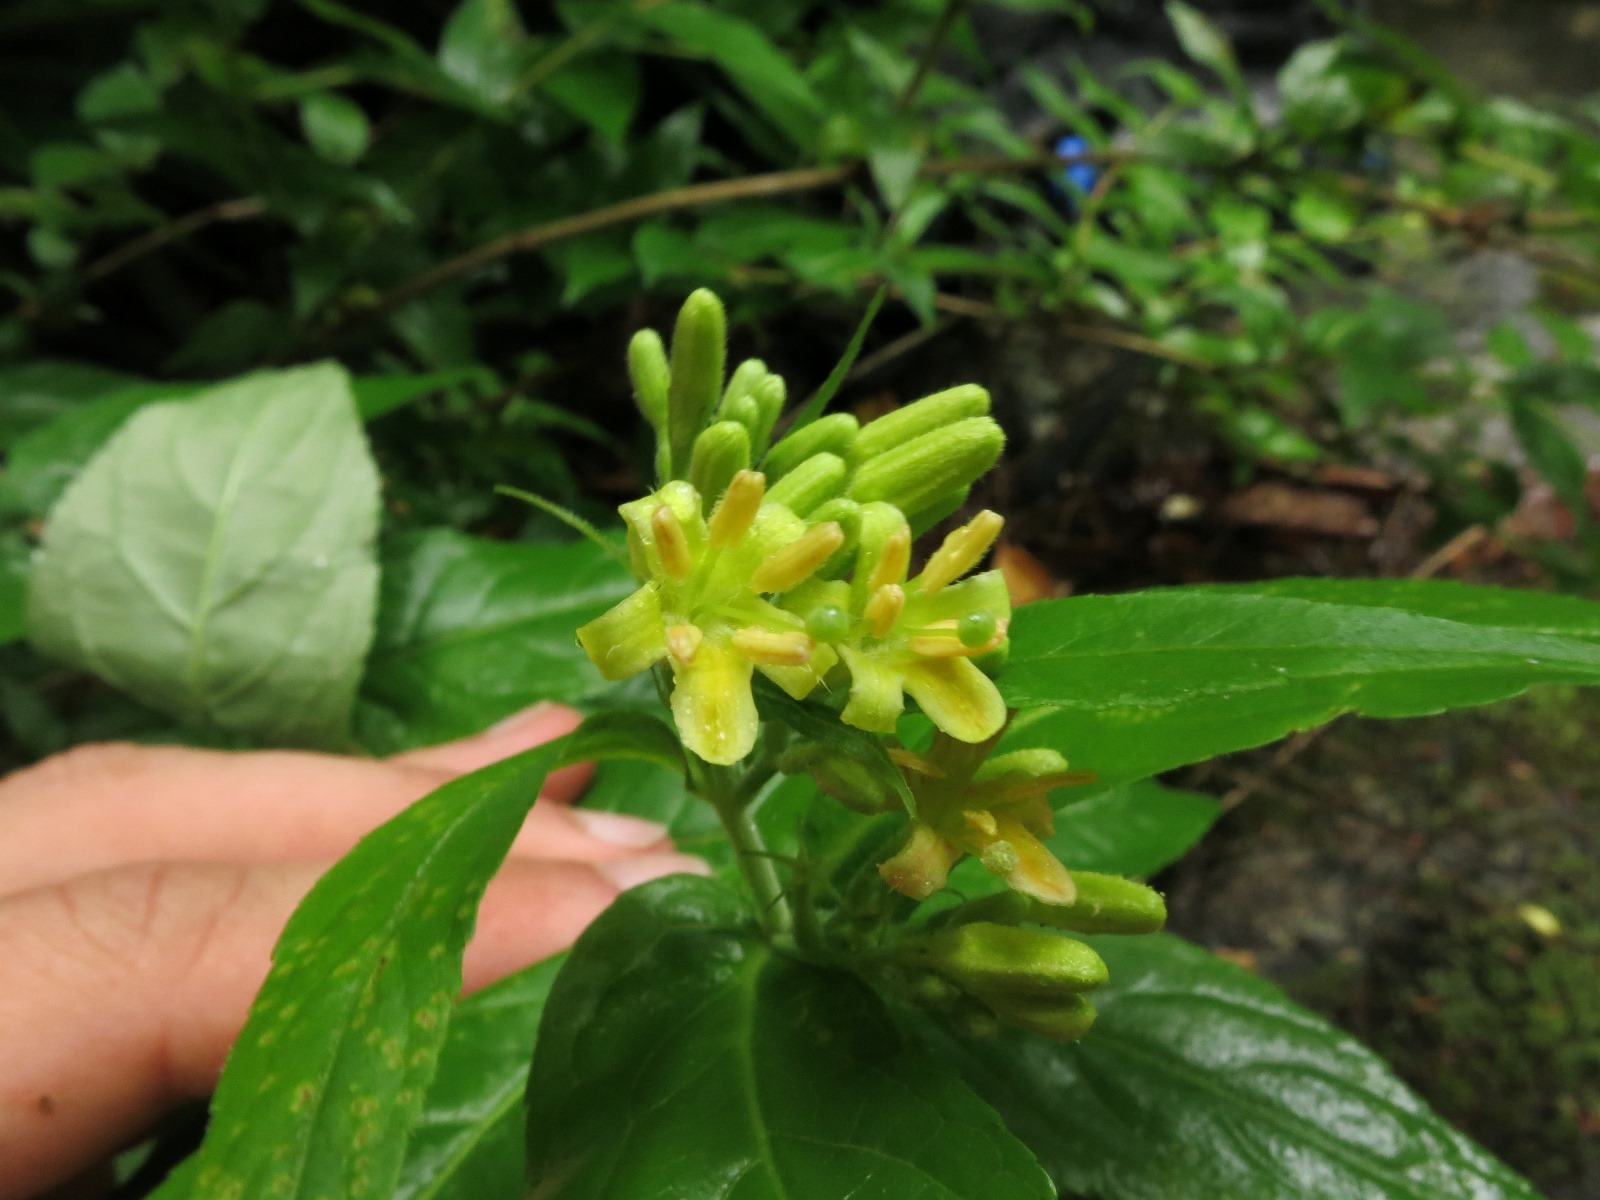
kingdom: Plantae
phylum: Tracheophyta
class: Magnoliopsida
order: Dipsacales
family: Caprifoliaceae
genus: Diervilla
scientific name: Diervilla rivularis
